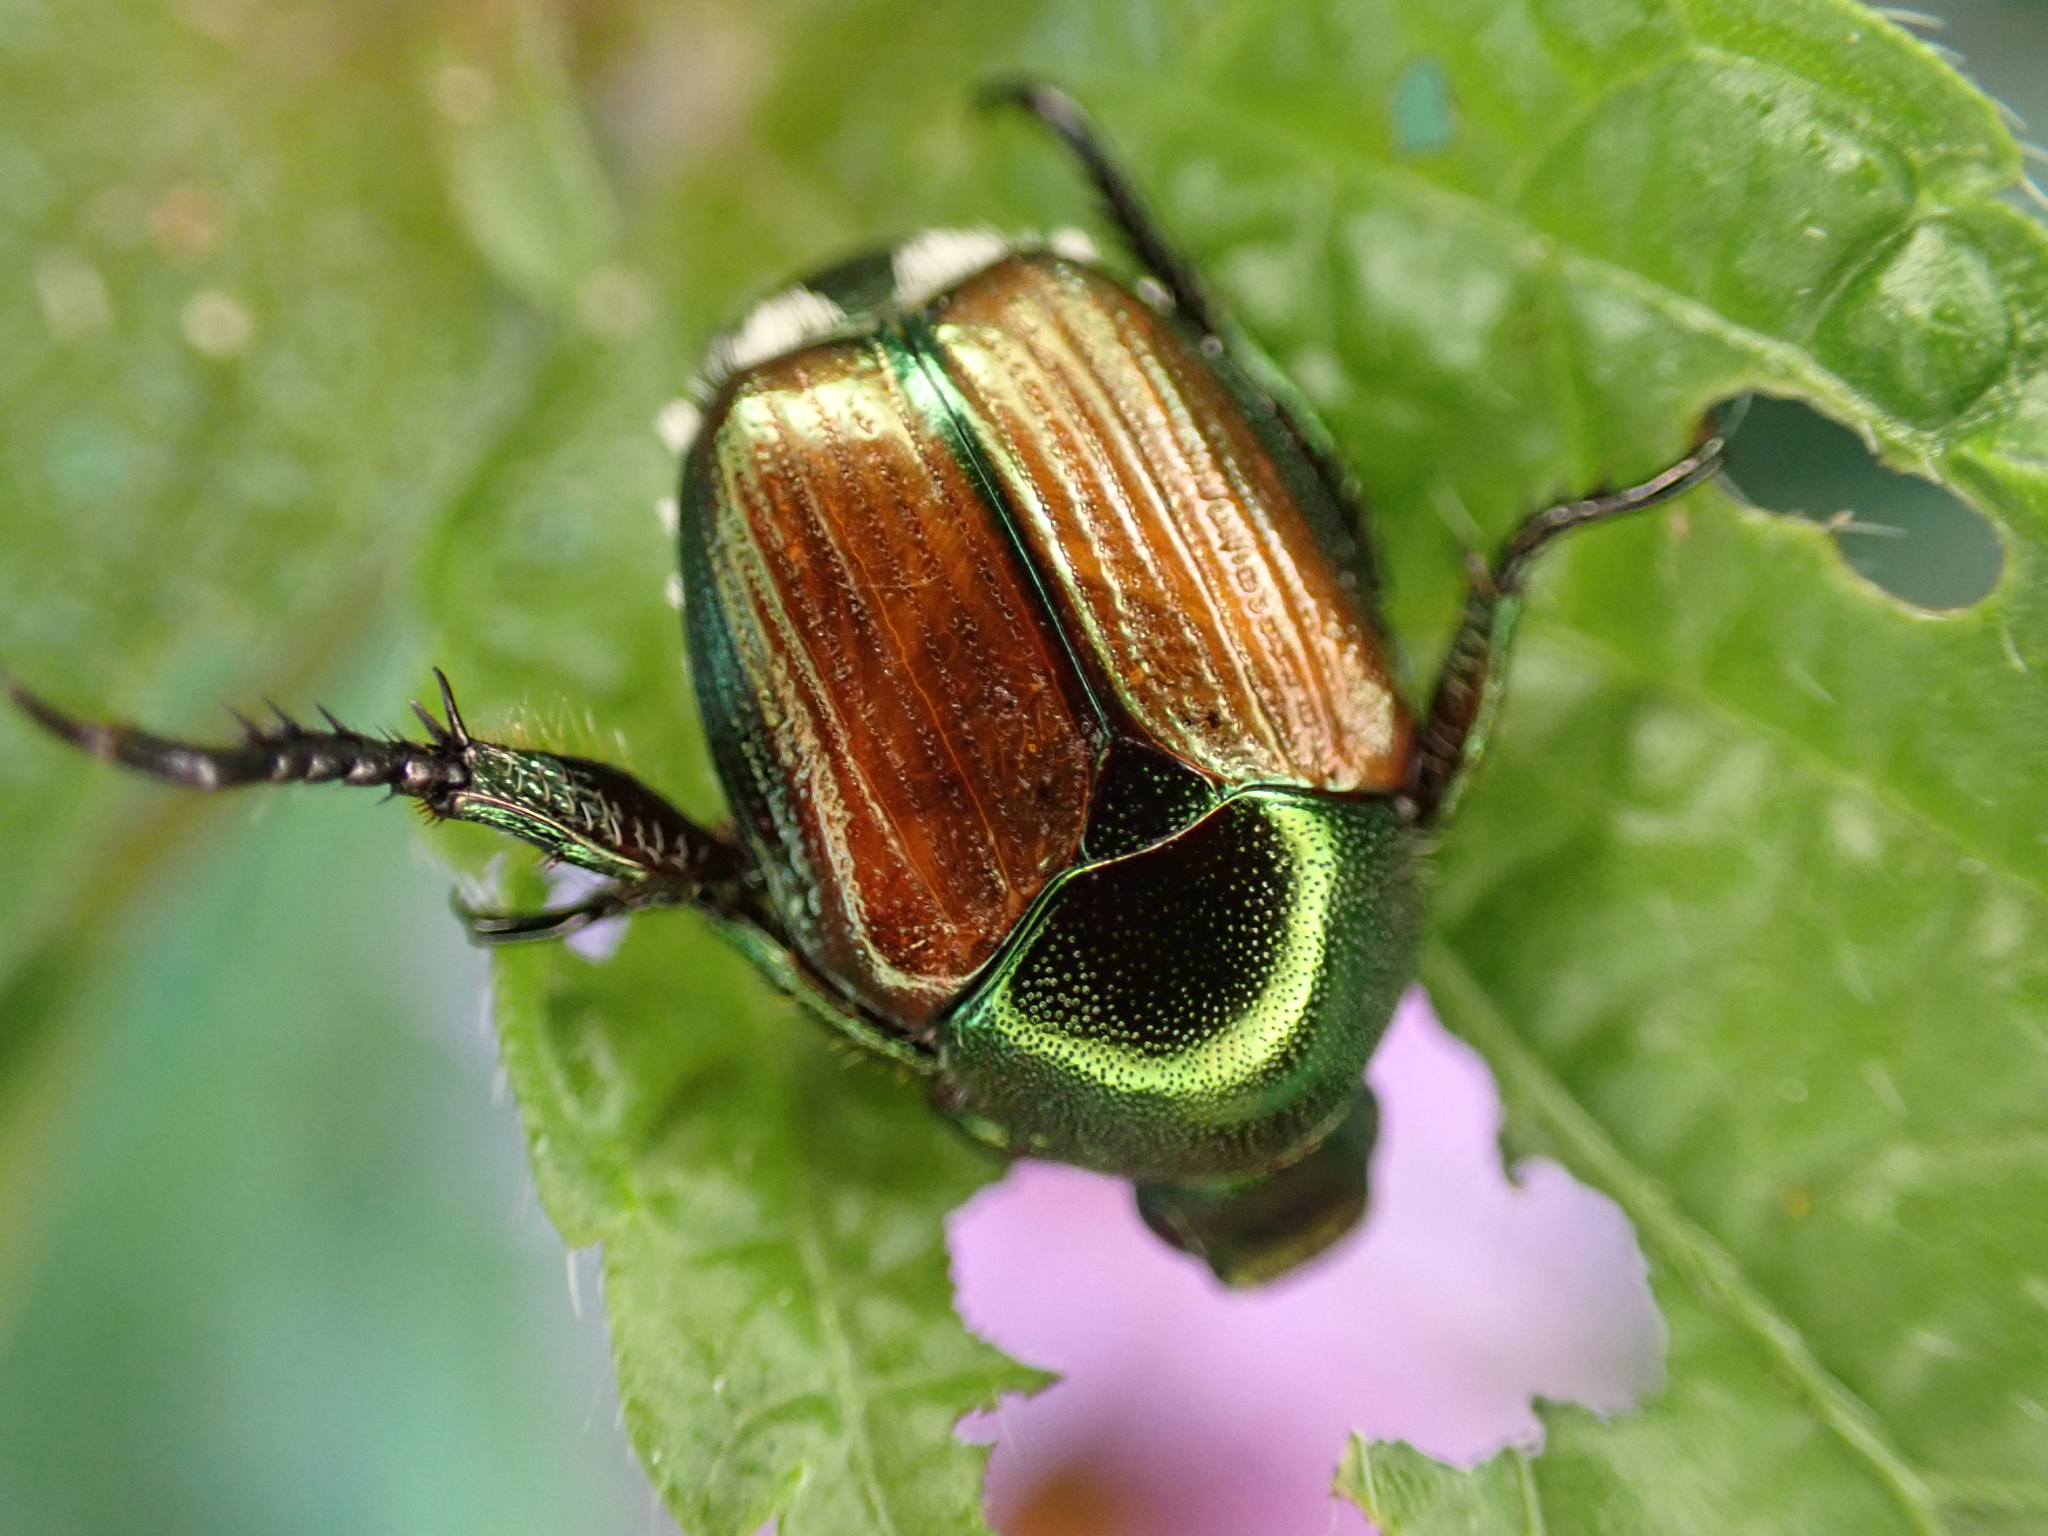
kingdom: Animalia
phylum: Arthropoda
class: Insecta
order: Coleoptera
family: Scarabaeidae
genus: Popillia
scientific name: Popillia japonica
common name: Japanese beetle
